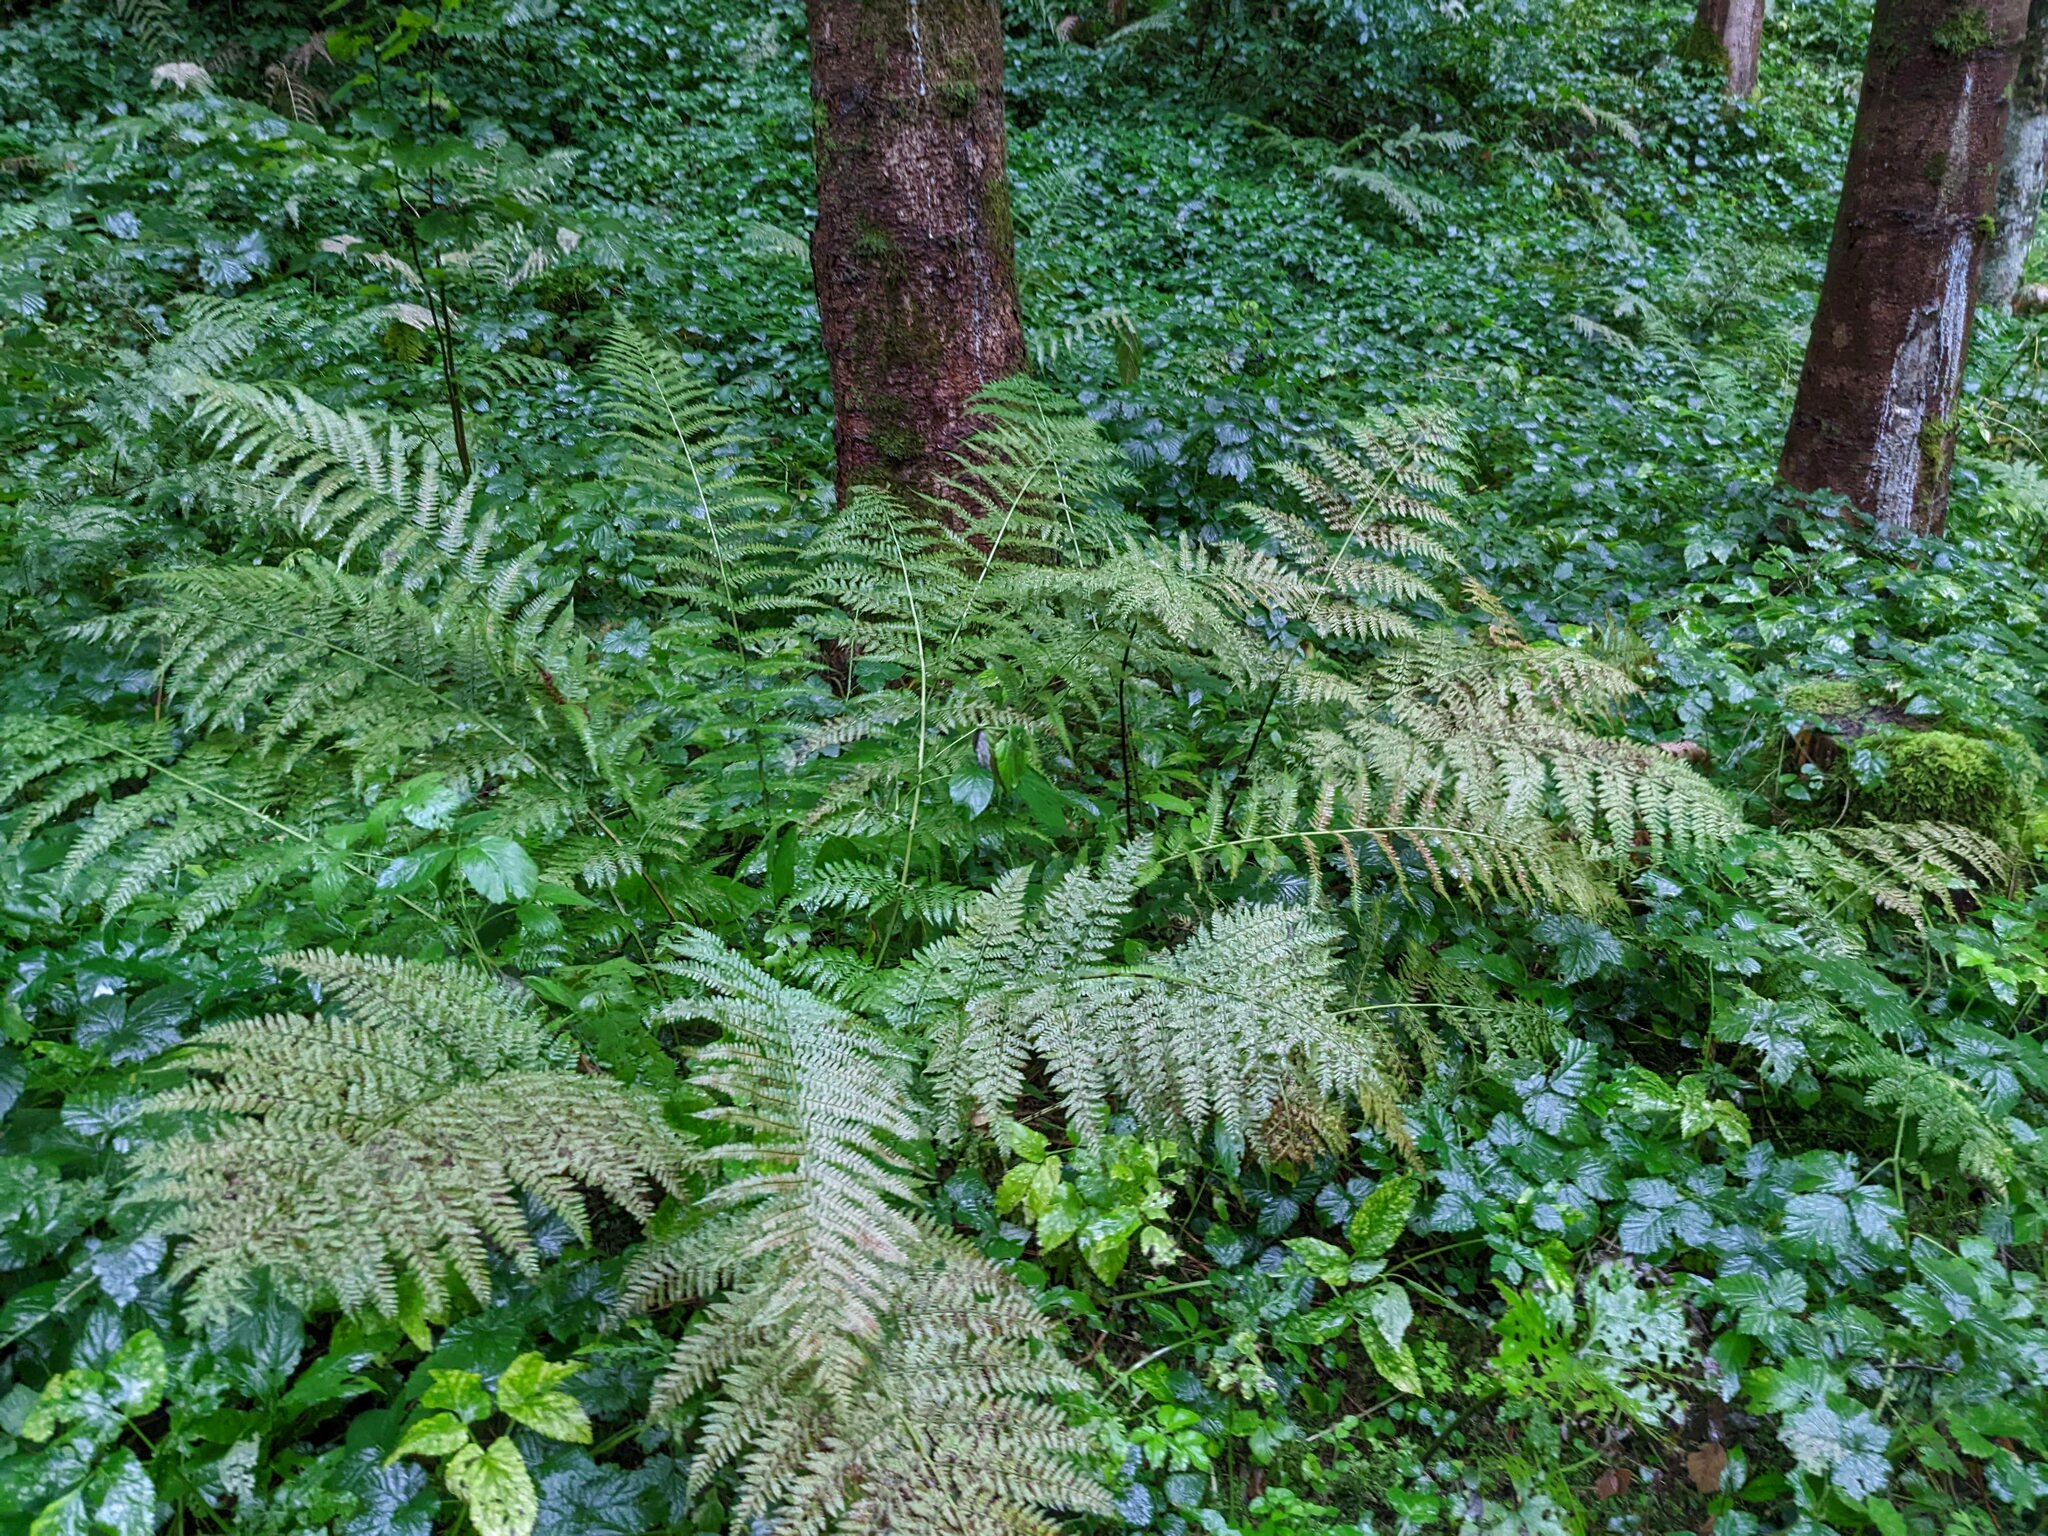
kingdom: Plantae
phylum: Tracheophyta
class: Polypodiopsida
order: Polypodiales
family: Athyriaceae
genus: Athyrium
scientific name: Athyrium filix-femina
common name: Lady fern
